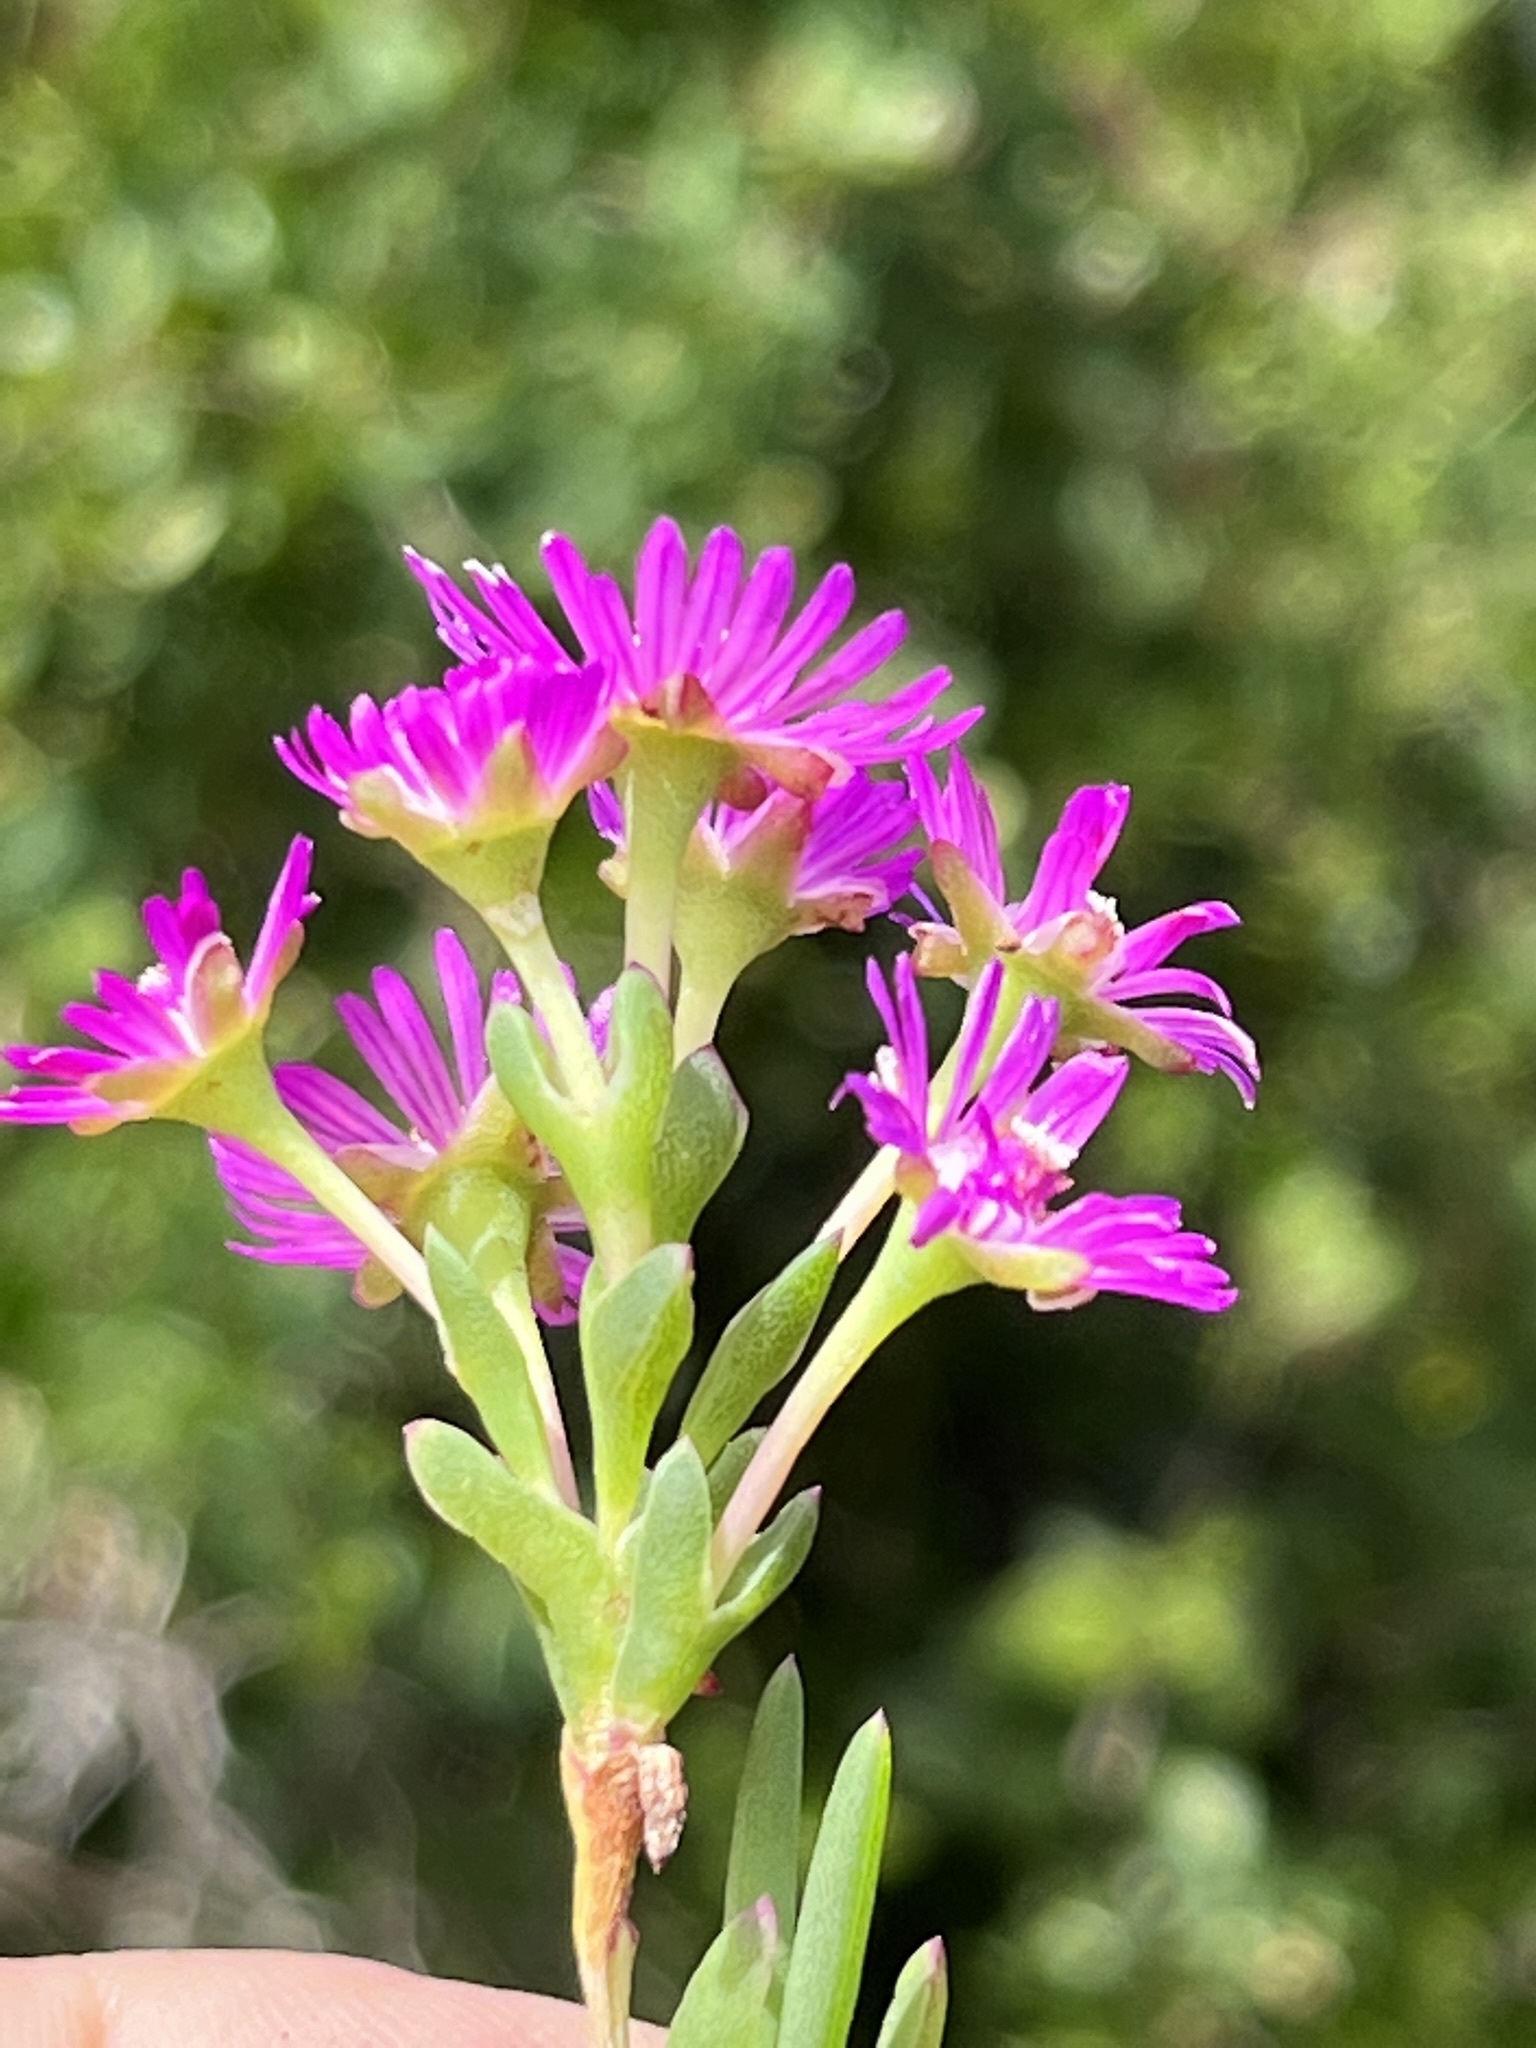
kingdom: Plantae
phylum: Tracheophyta
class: Magnoliopsida
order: Caryophyllales
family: Aizoaceae
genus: Ruschia
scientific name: Ruschia macowanii
